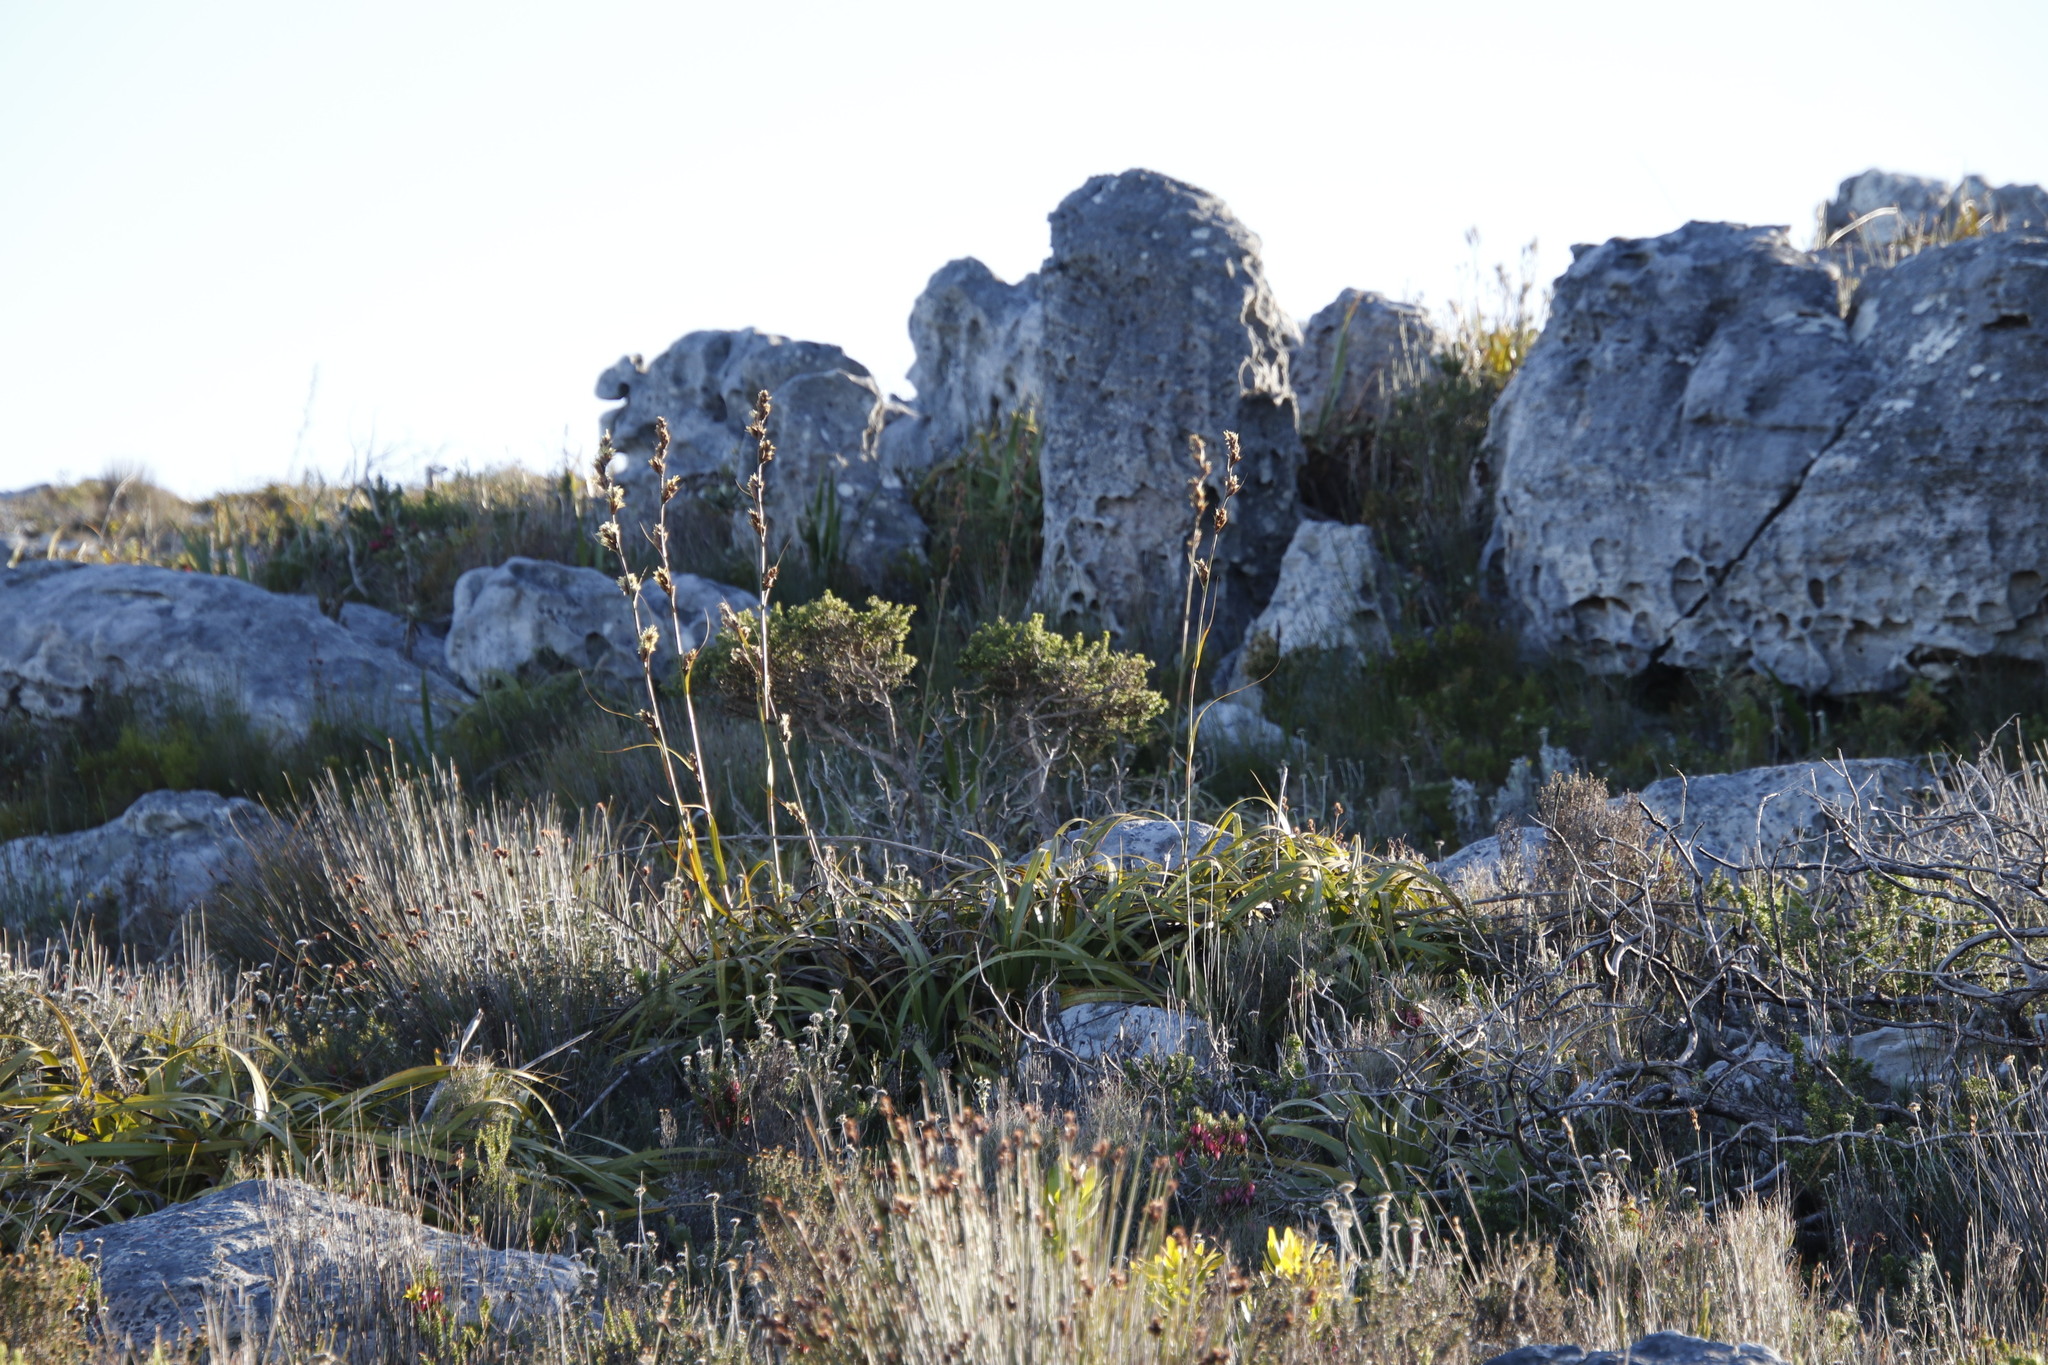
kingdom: Plantae
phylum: Tracheophyta
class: Liliopsida
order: Poales
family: Cyperaceae
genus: Tetraria
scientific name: Tetraria thermalis
